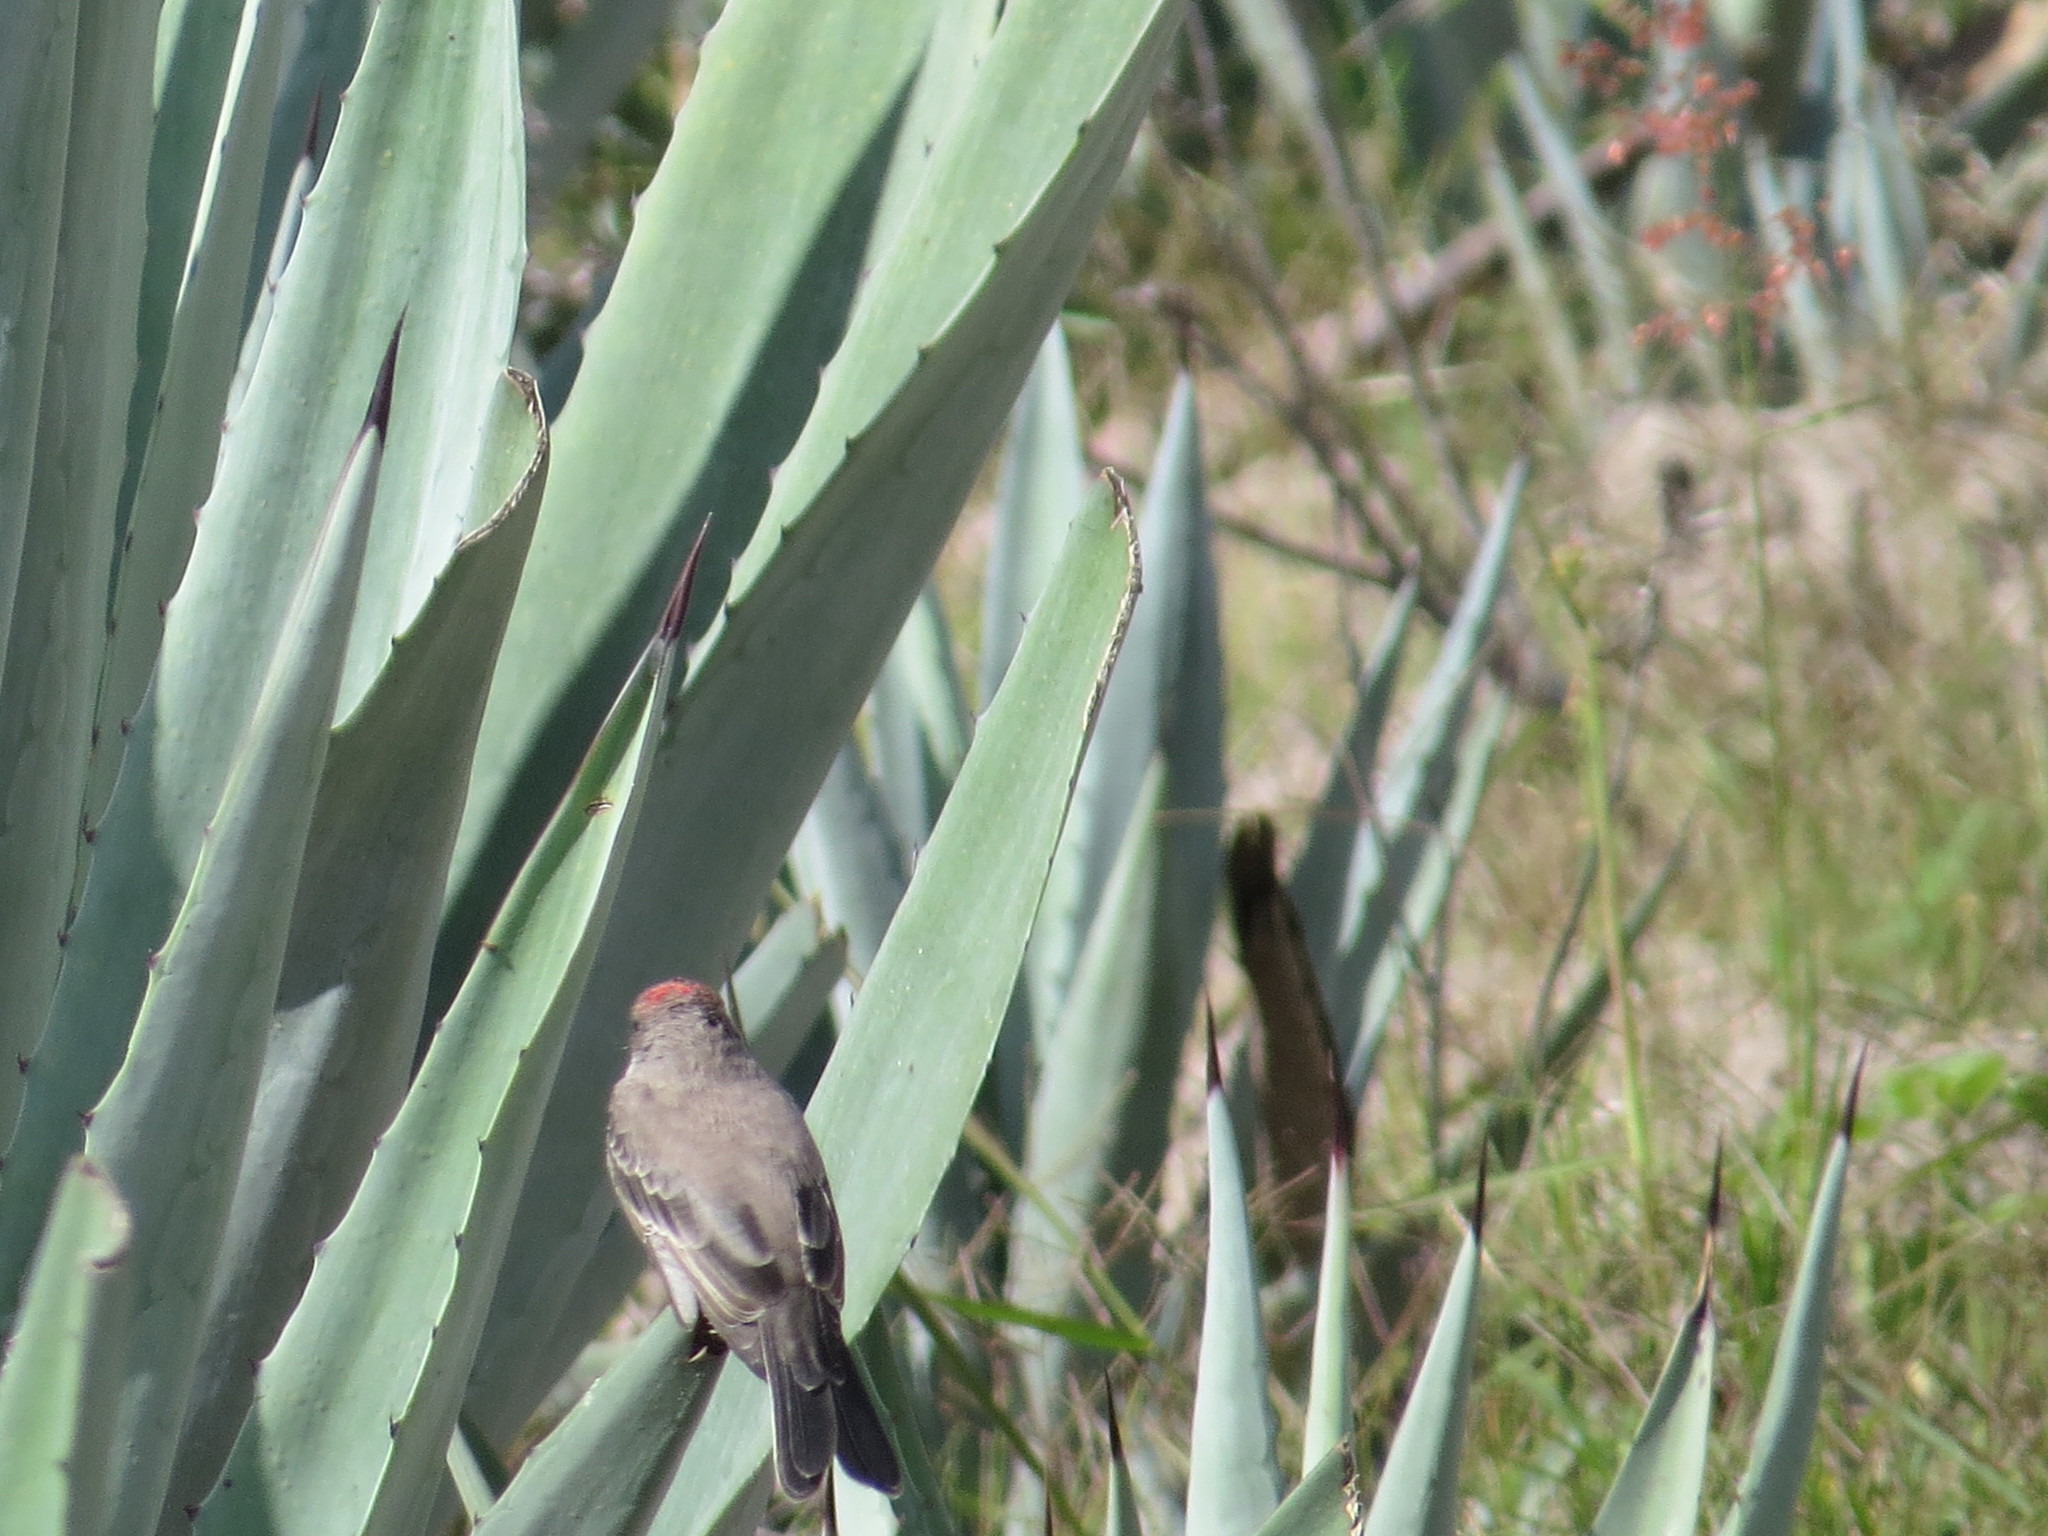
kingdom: Animalia
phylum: Chordata
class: Aves
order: Passeriformes
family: Tyrannidae
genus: Pyrocephalus
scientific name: Pyrocephalus rubinus
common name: Vermilion flycatcher
